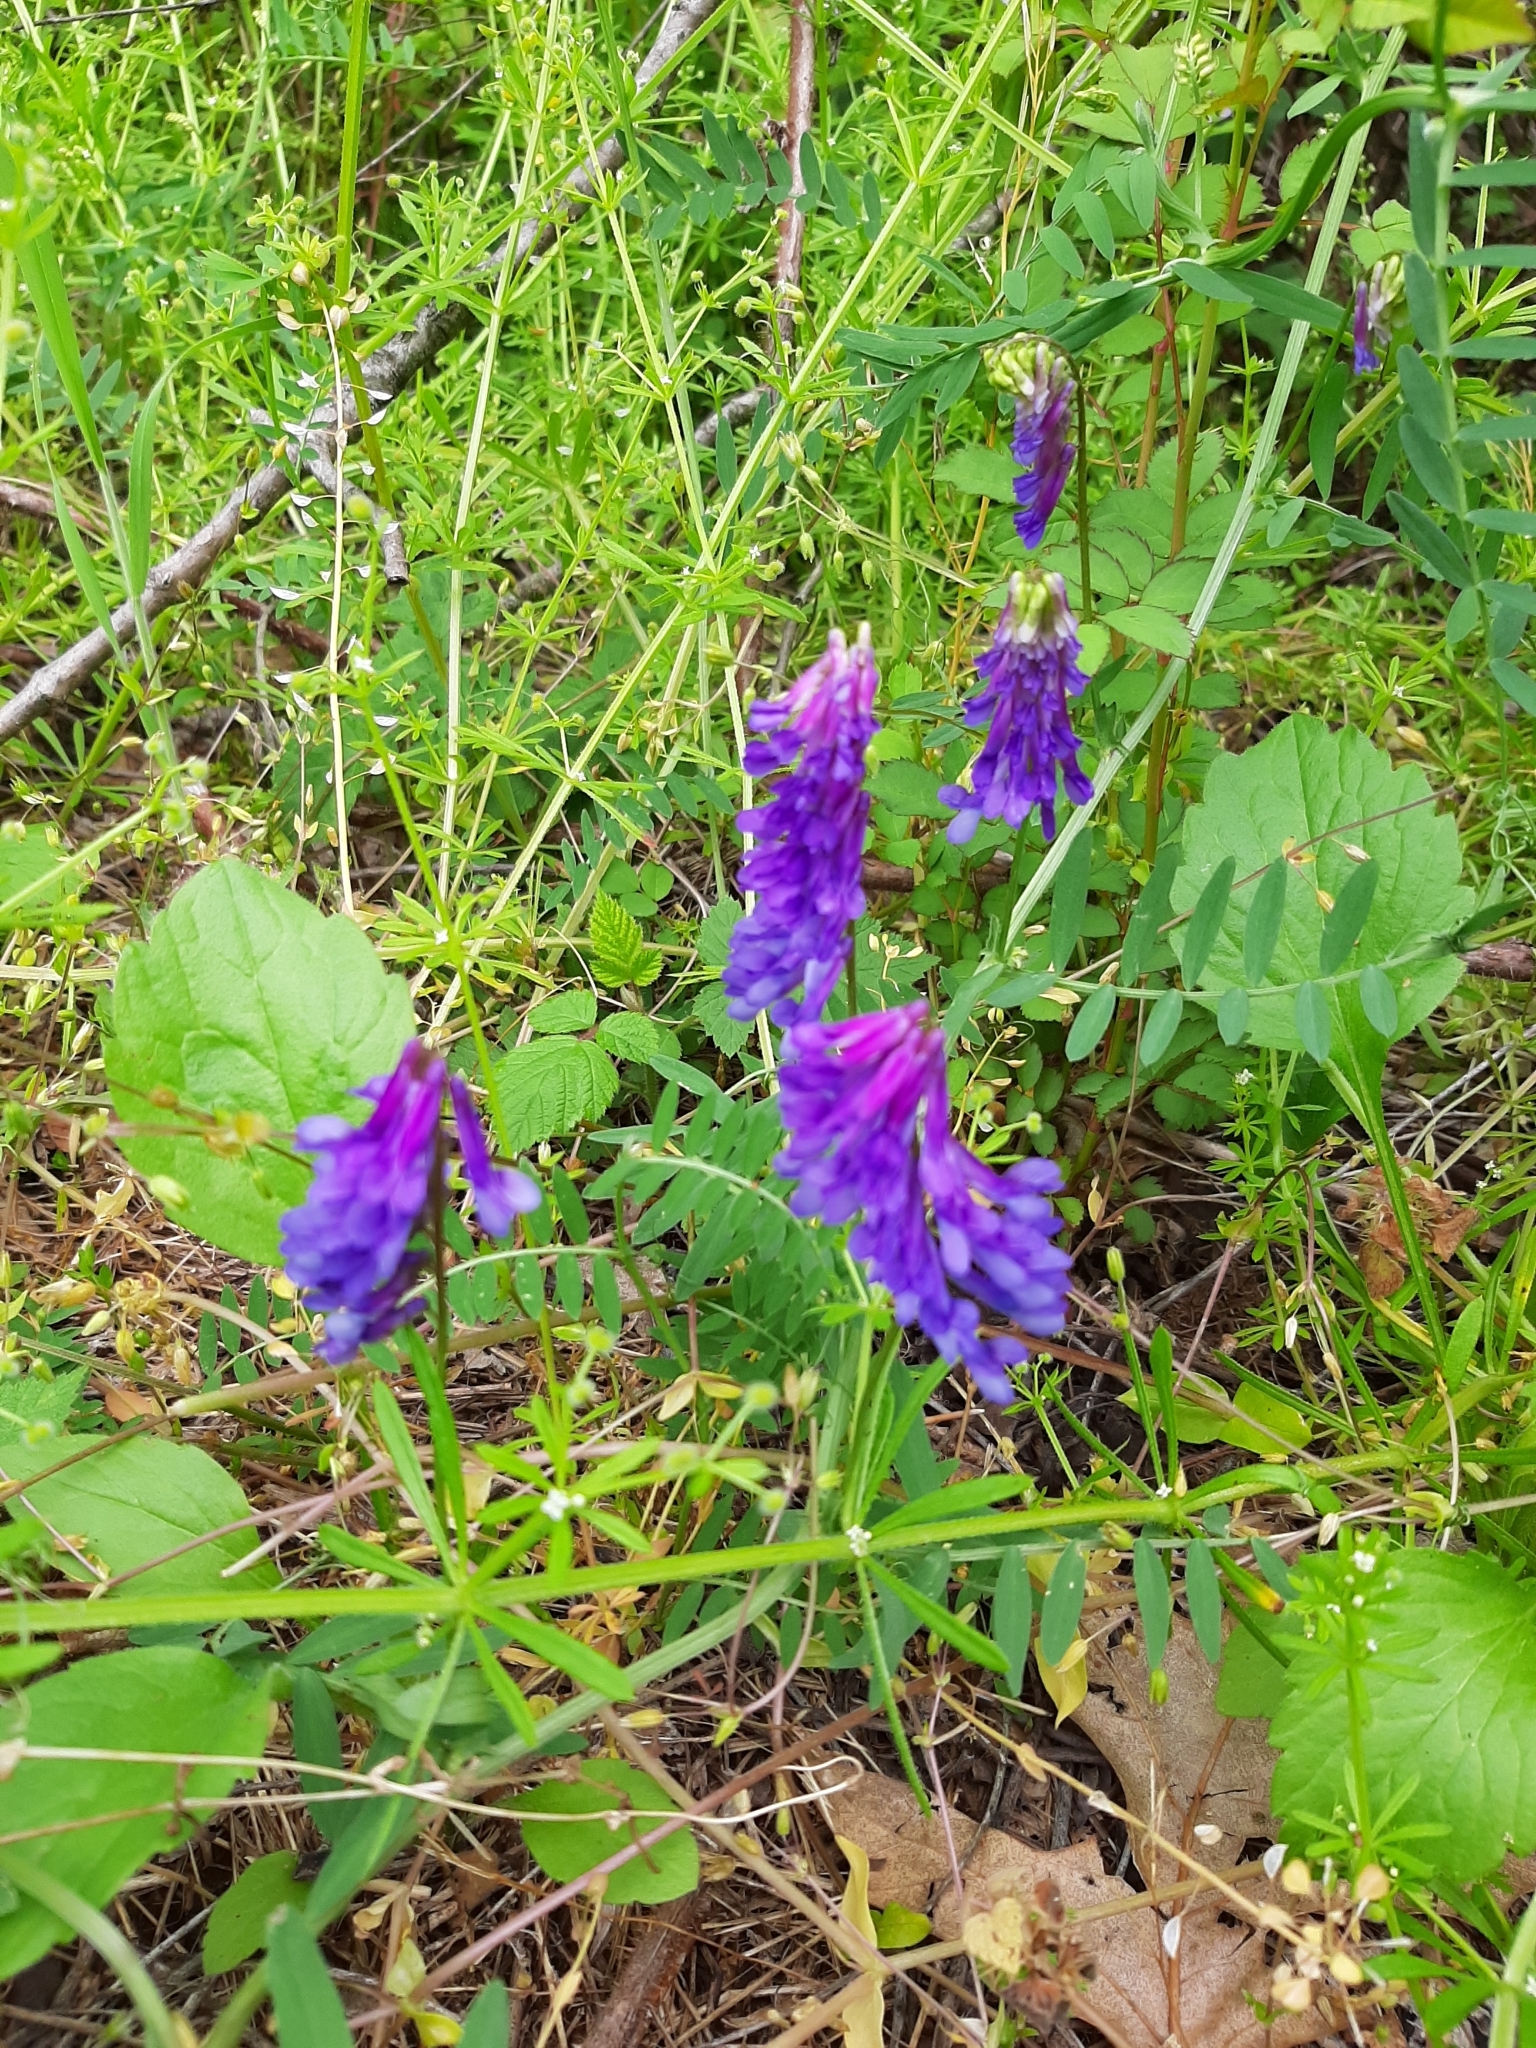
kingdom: Plantae
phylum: Tracheophyta
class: Magnoliopsida
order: Fabales
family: Fabaceae
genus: Vicia
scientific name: Vicia villosa
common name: Fodder vetch
